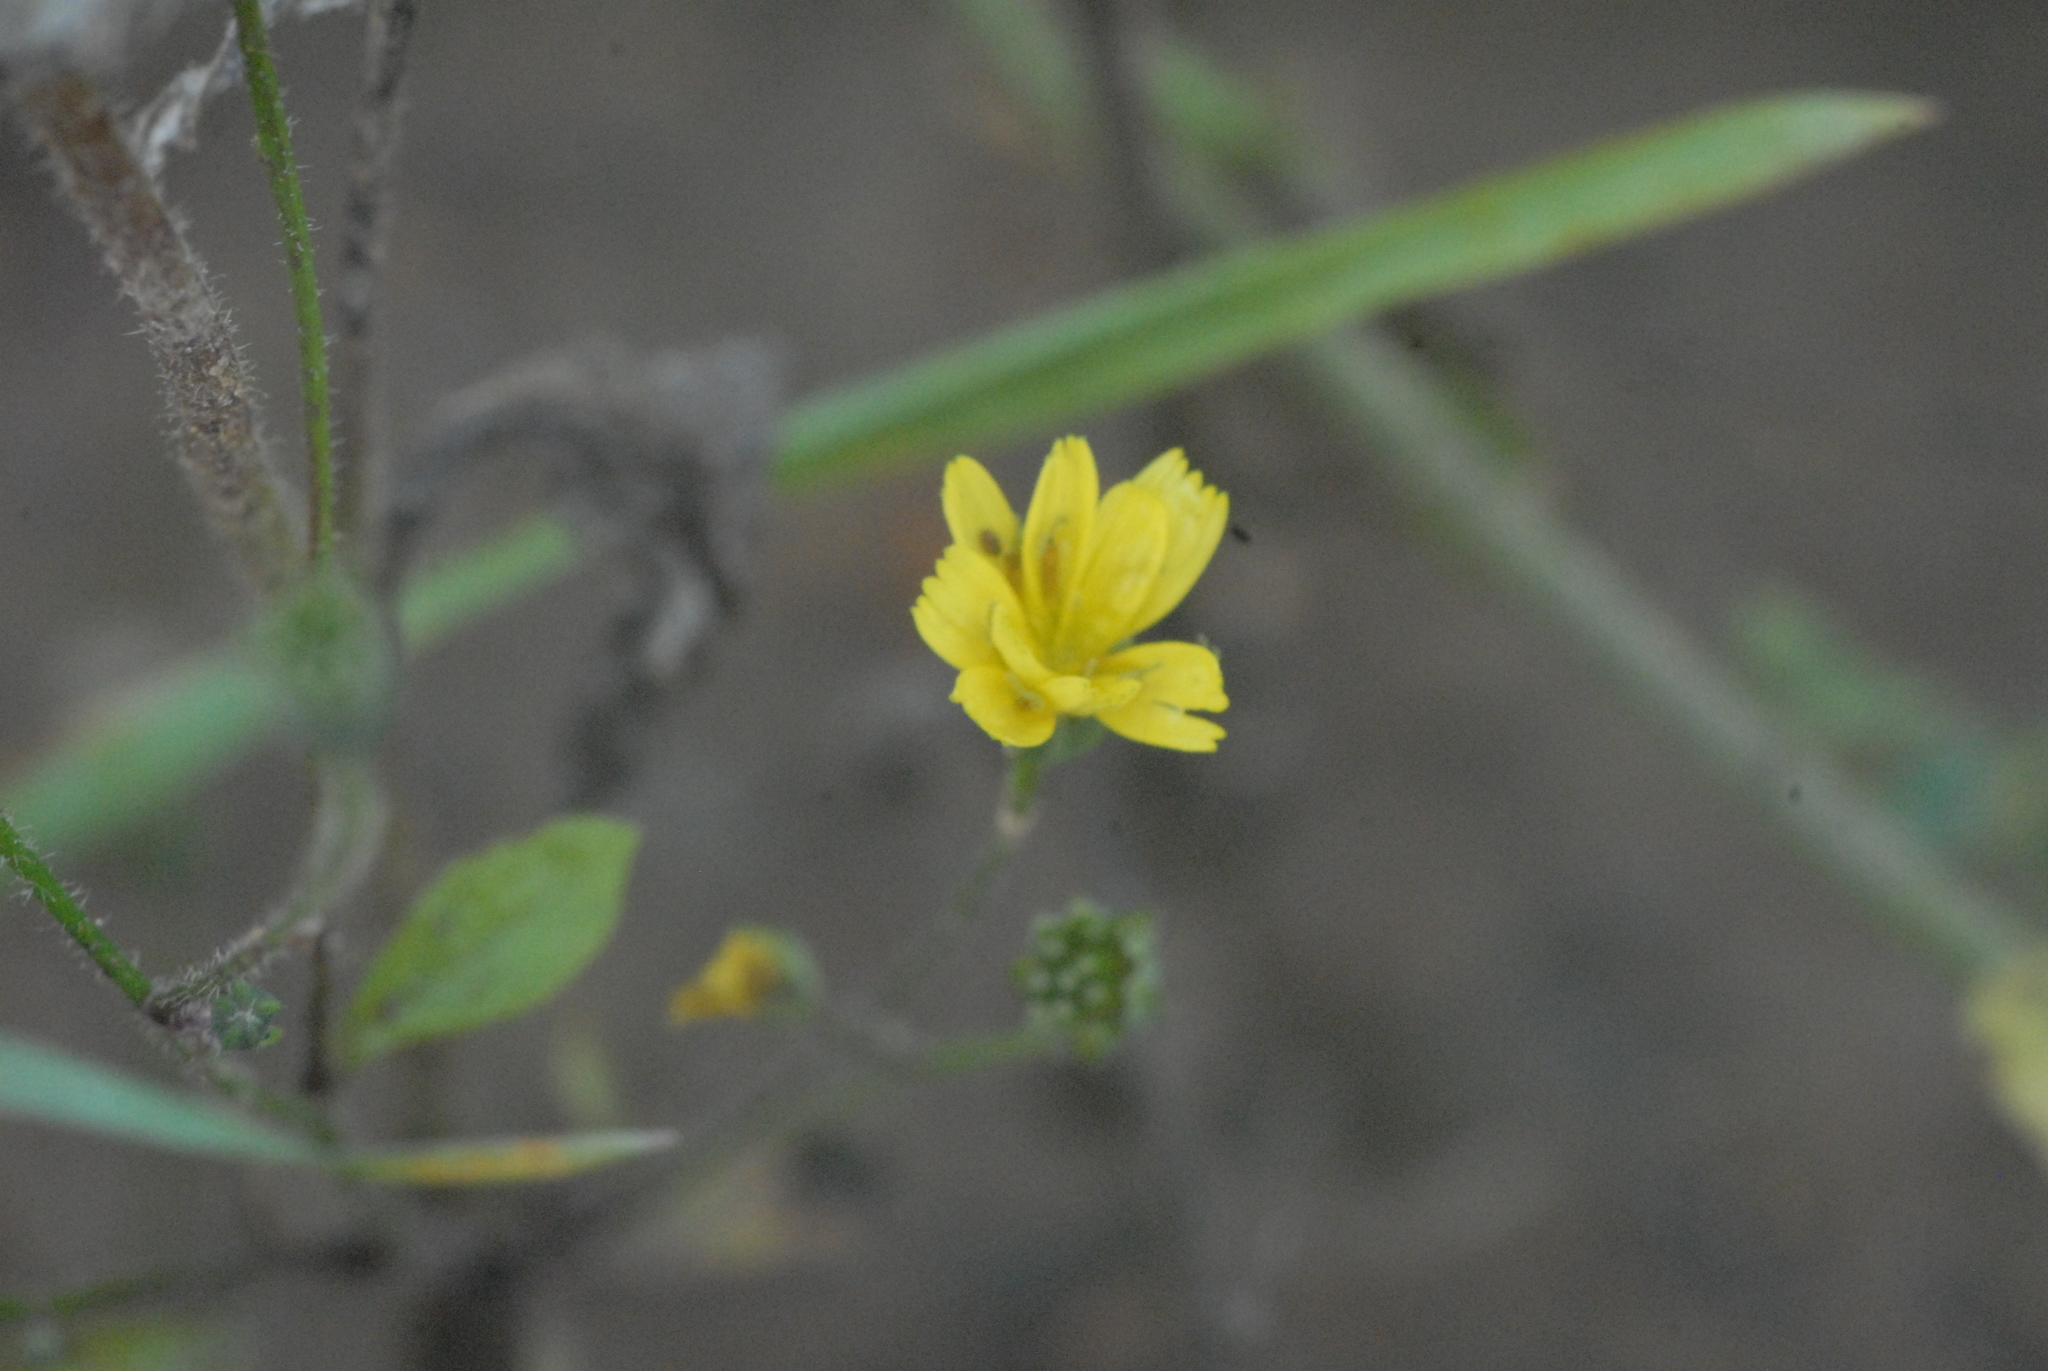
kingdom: Plantae
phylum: Tracheophyta
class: Magnoliopsida
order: Asterales
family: Asteraceae
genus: Lapsana
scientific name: Lapsana communis
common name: Nipplewort
